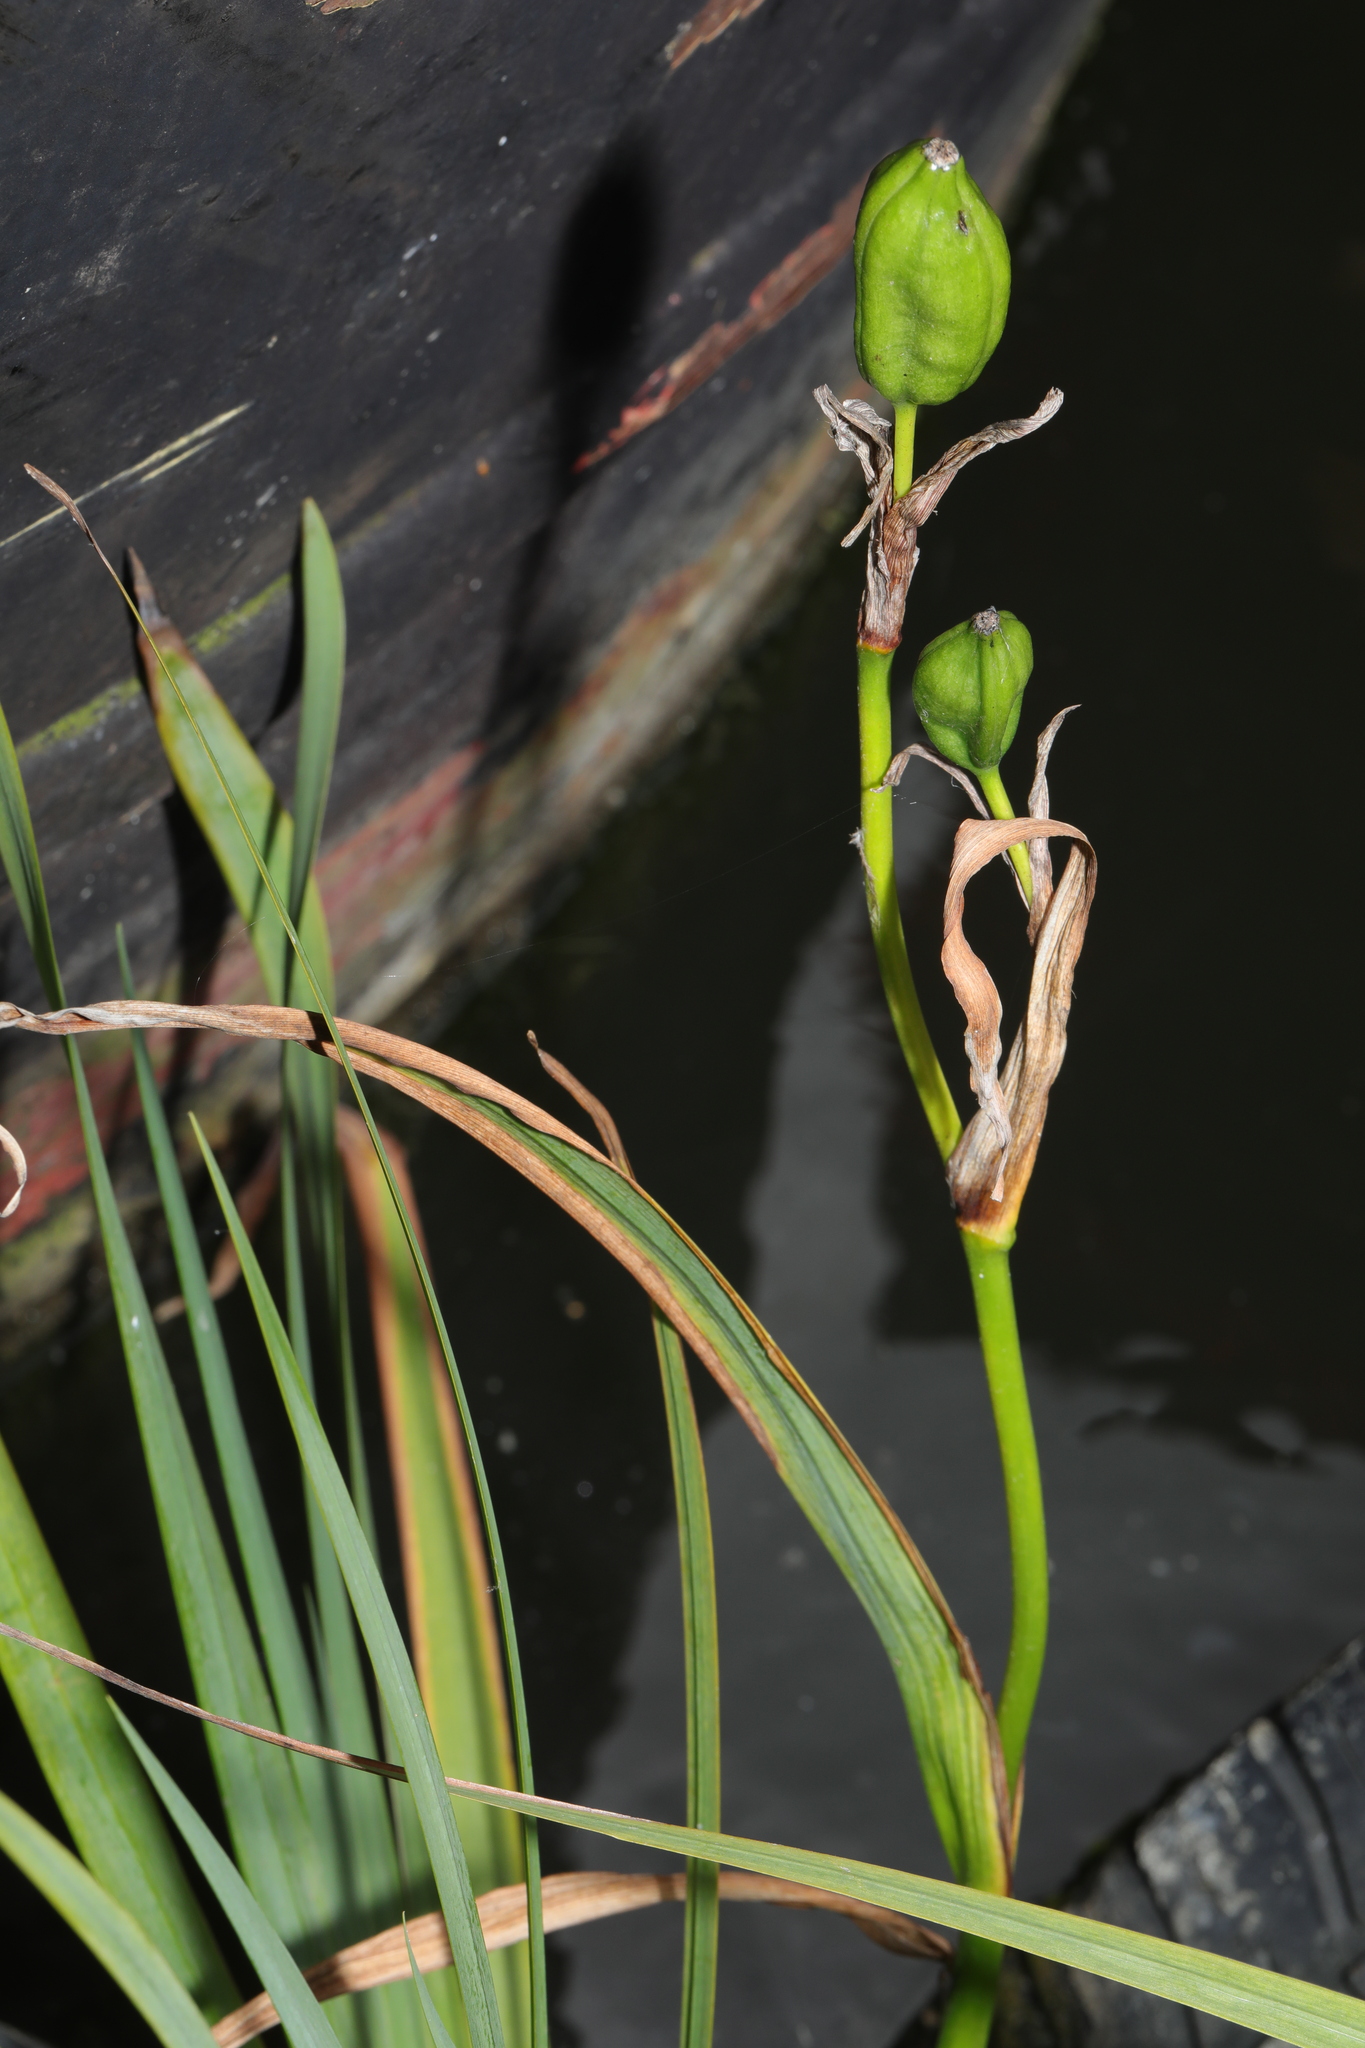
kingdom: Plantae
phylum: Tracheophyta
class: Liliopsida
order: Asparagales
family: Iridaceae
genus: Iris
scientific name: Iris pseudacorus
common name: Yellow flag
